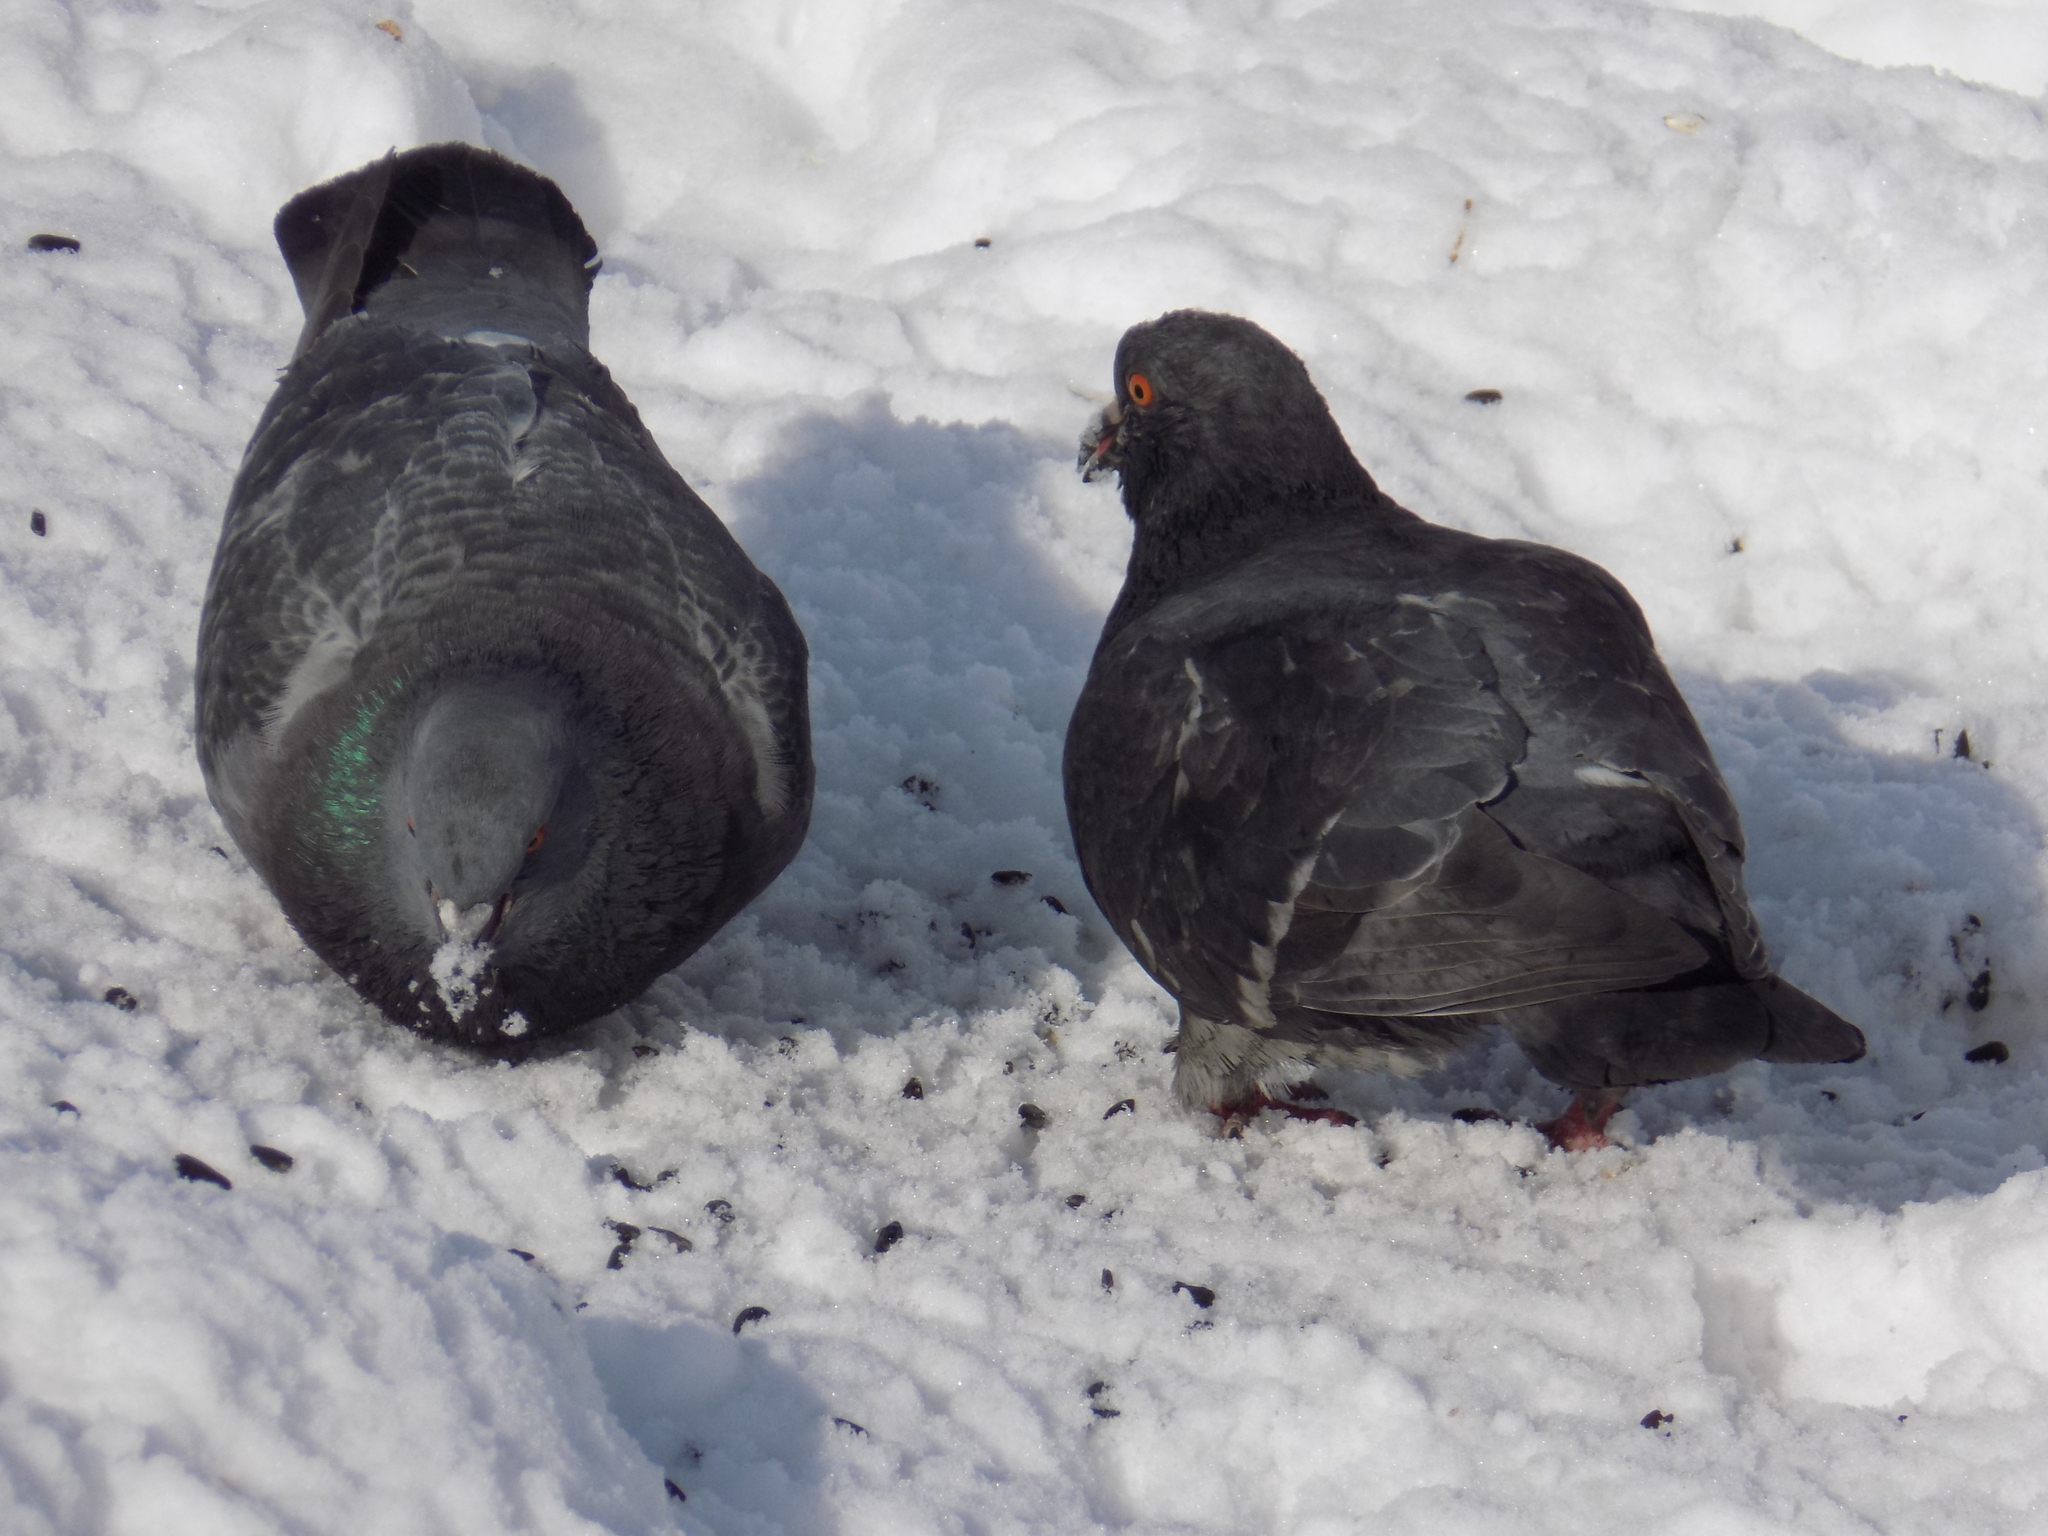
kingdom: Animalia
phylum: Chordata
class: Aves
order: Columbiformes
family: Columbidae
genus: Columba
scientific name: Columba livia
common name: Rock pigeon
